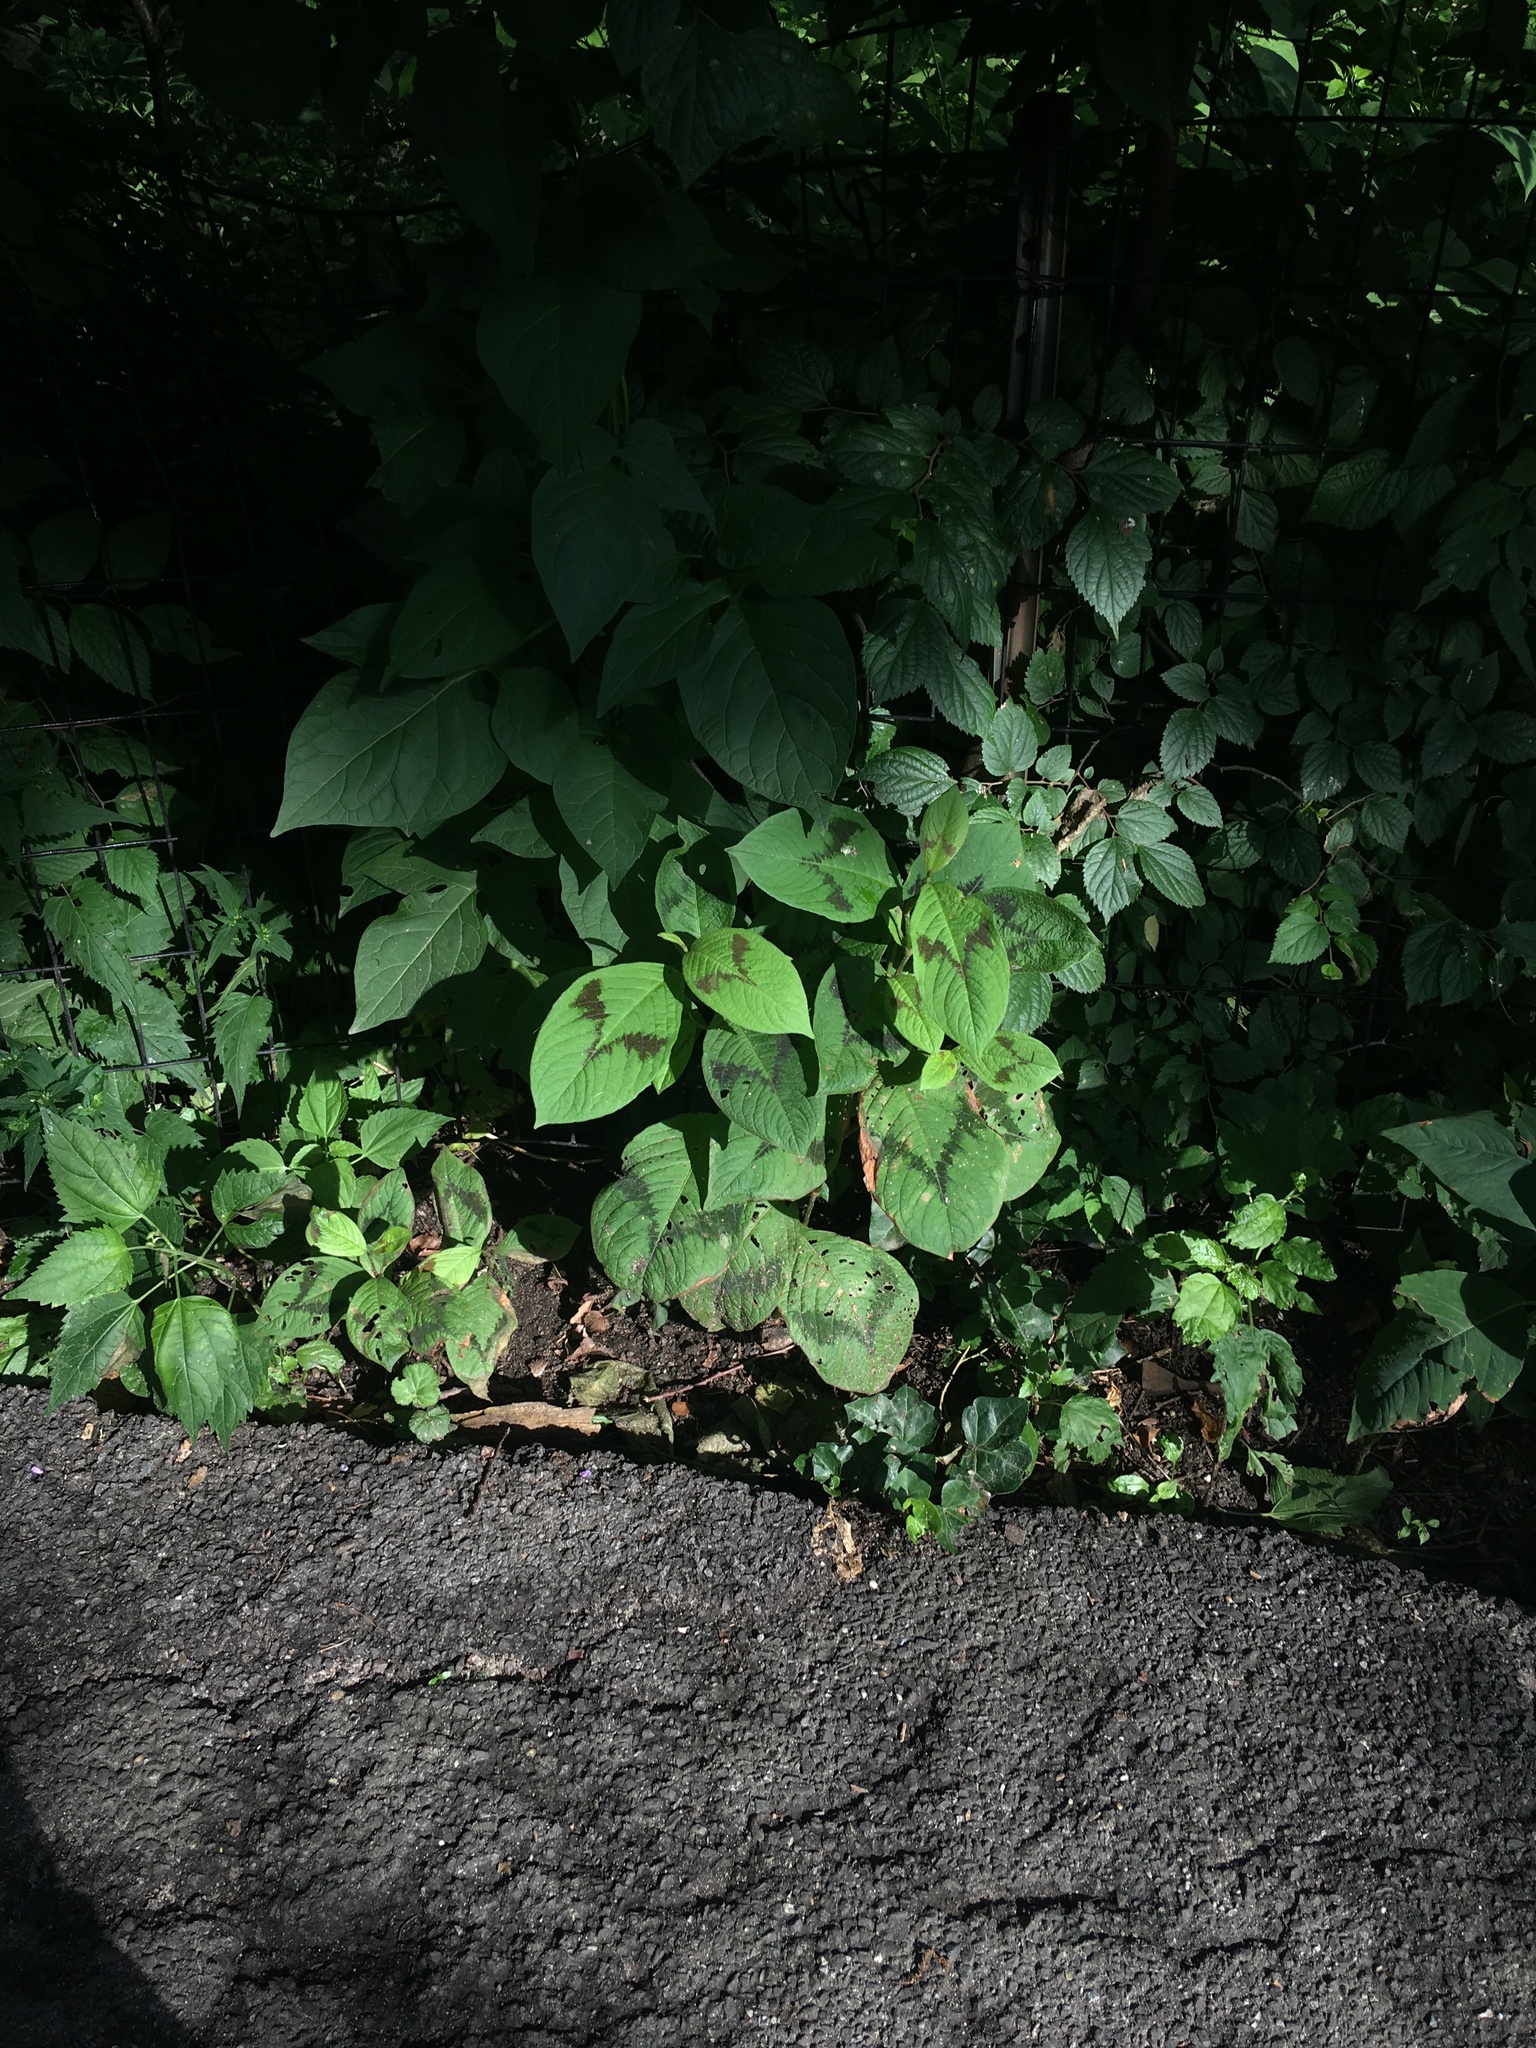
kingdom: Plantae
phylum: Tracheophyta
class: Magnoliopsida
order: Caryophyllales
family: Polygonaceae
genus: Persicaria
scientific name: Persicaria filiformis
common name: Asian jumpseed
